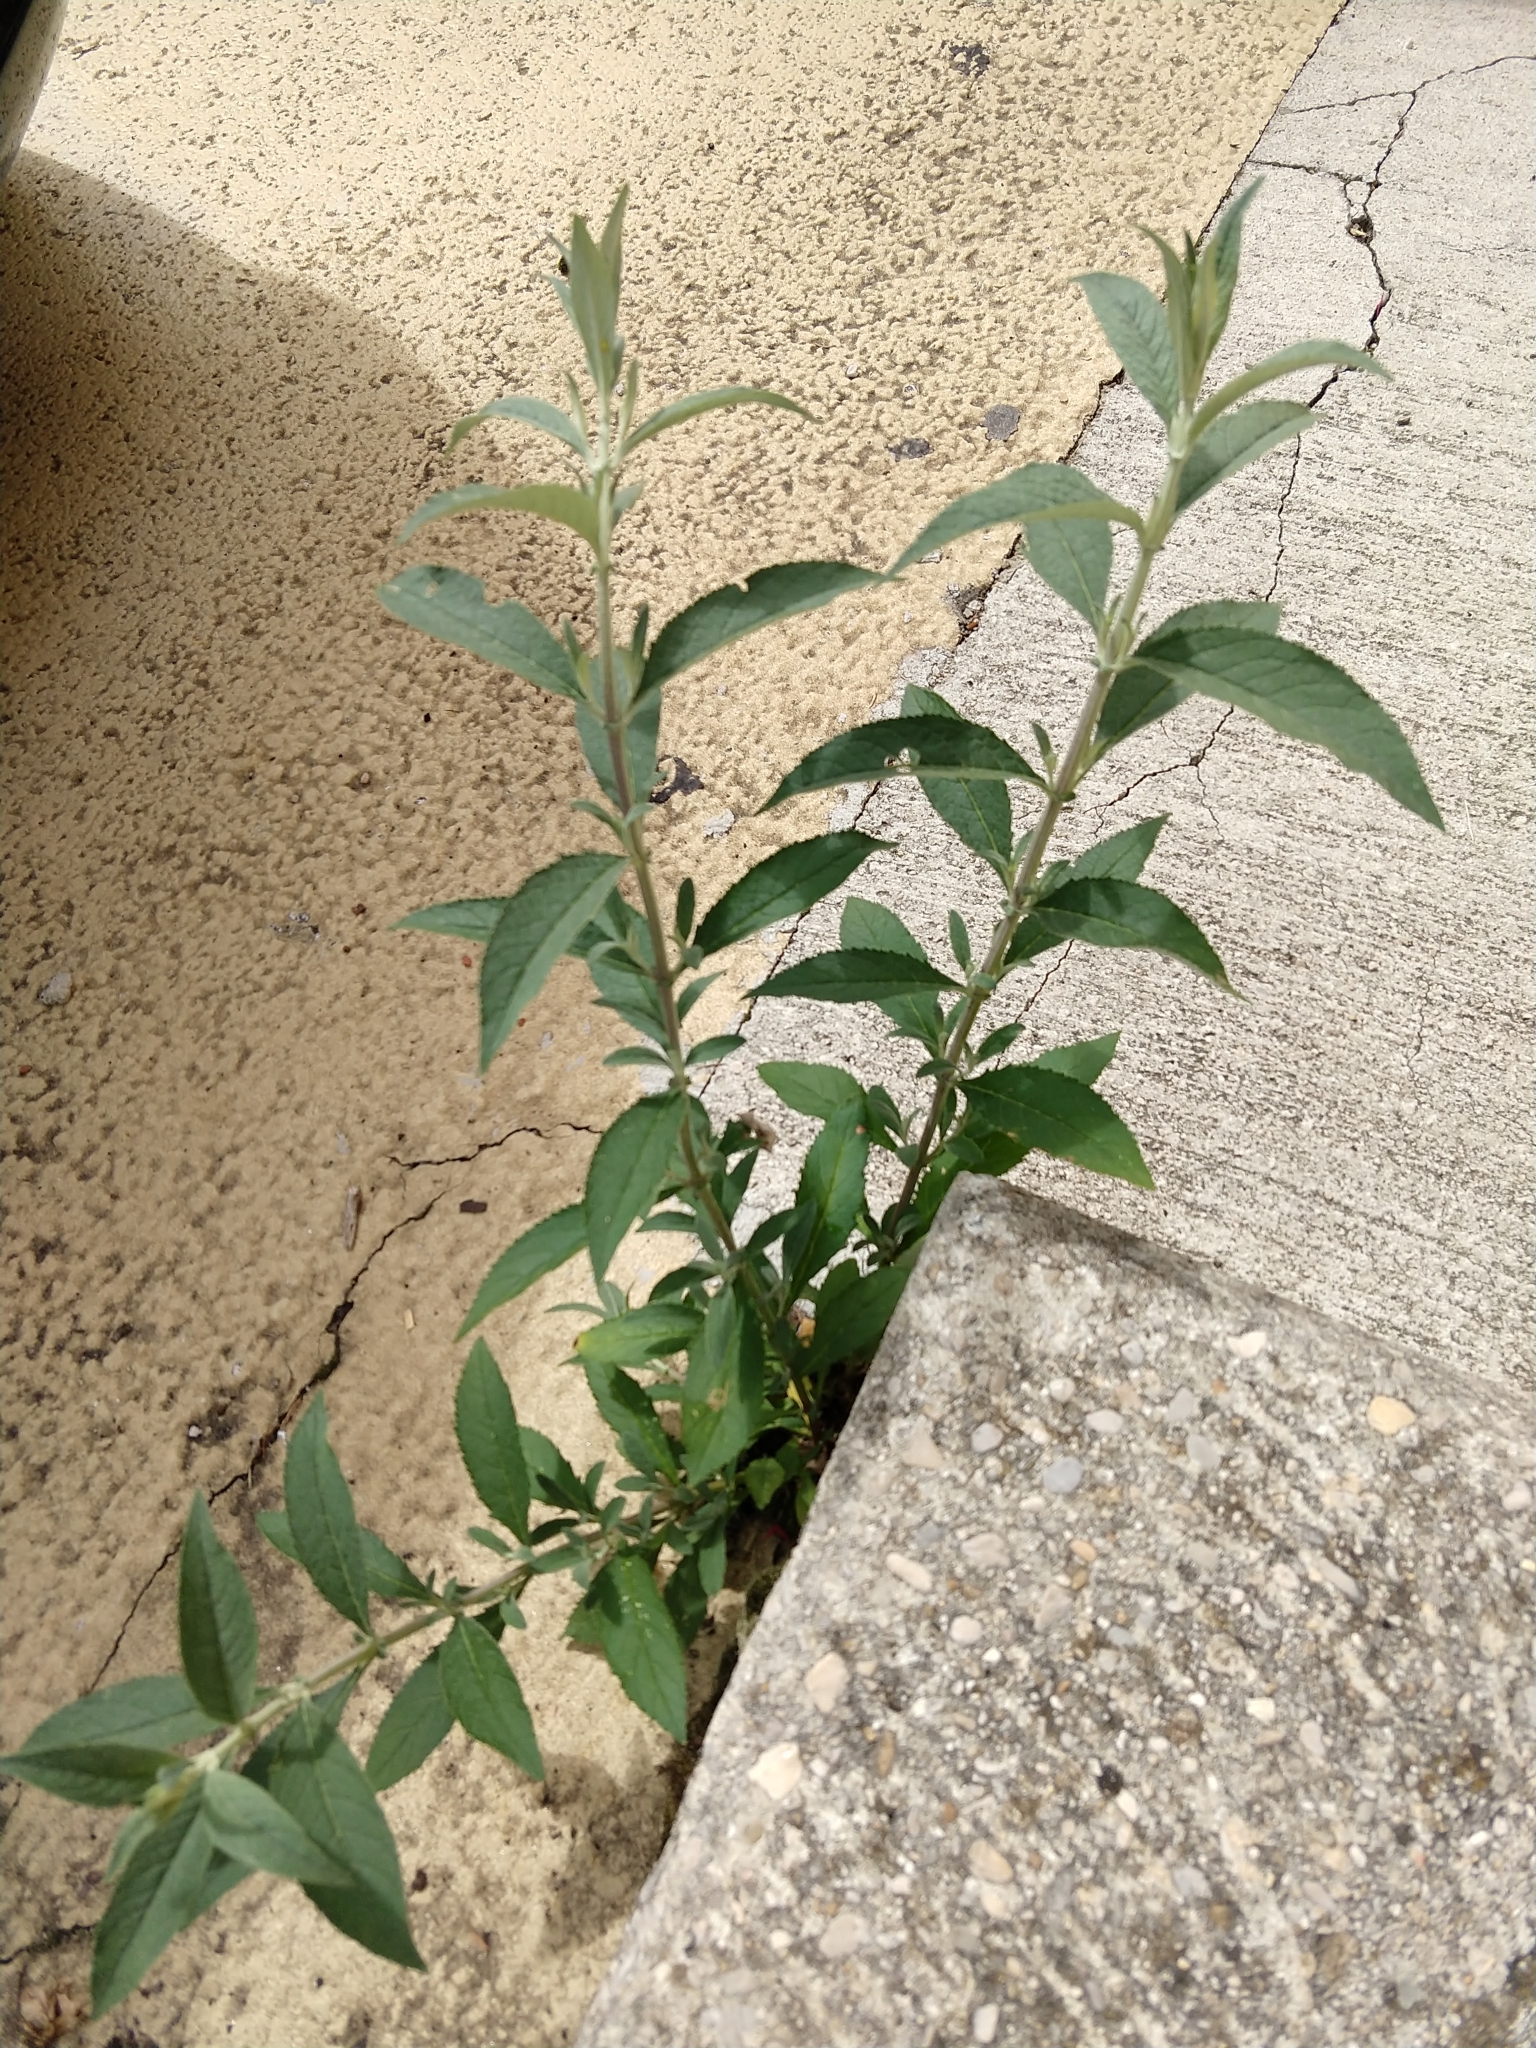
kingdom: Plantae
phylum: Tracheophyta
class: Magnoliopsida
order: Lamiales
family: Scrophulariaceae
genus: Buddleja
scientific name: Buddleja davidii
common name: Butterfly-bush
